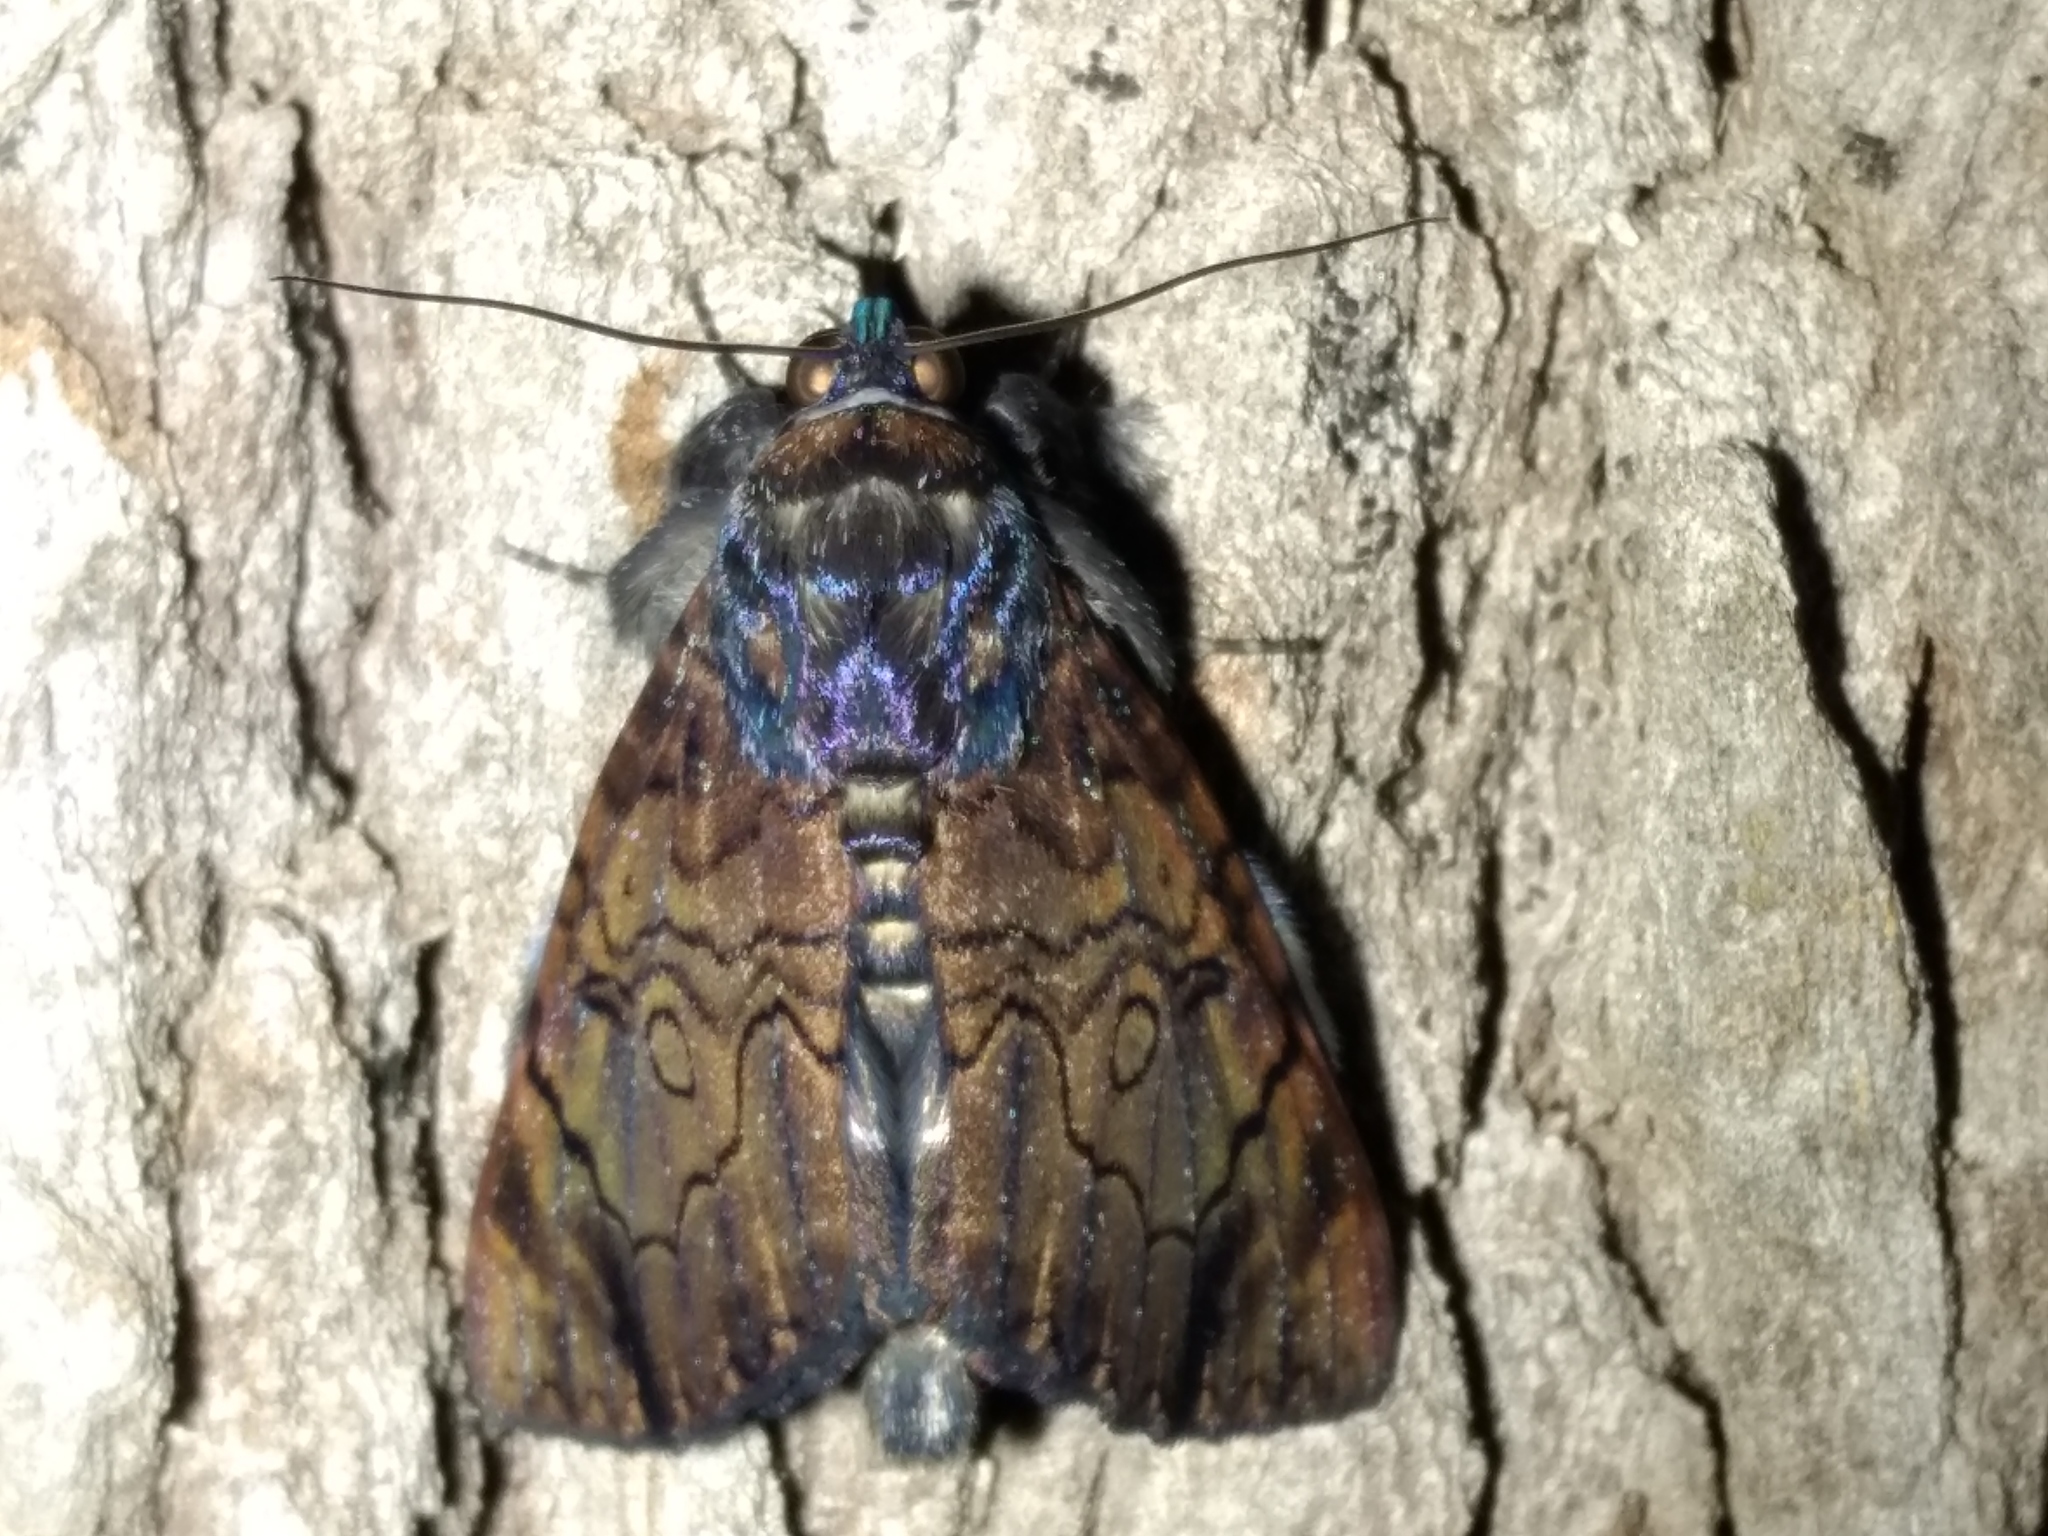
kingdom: Animalia
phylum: Arthropoda
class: Insecta
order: Lepidoptera
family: Erebidae
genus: Catephia
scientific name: Catephia linteola
